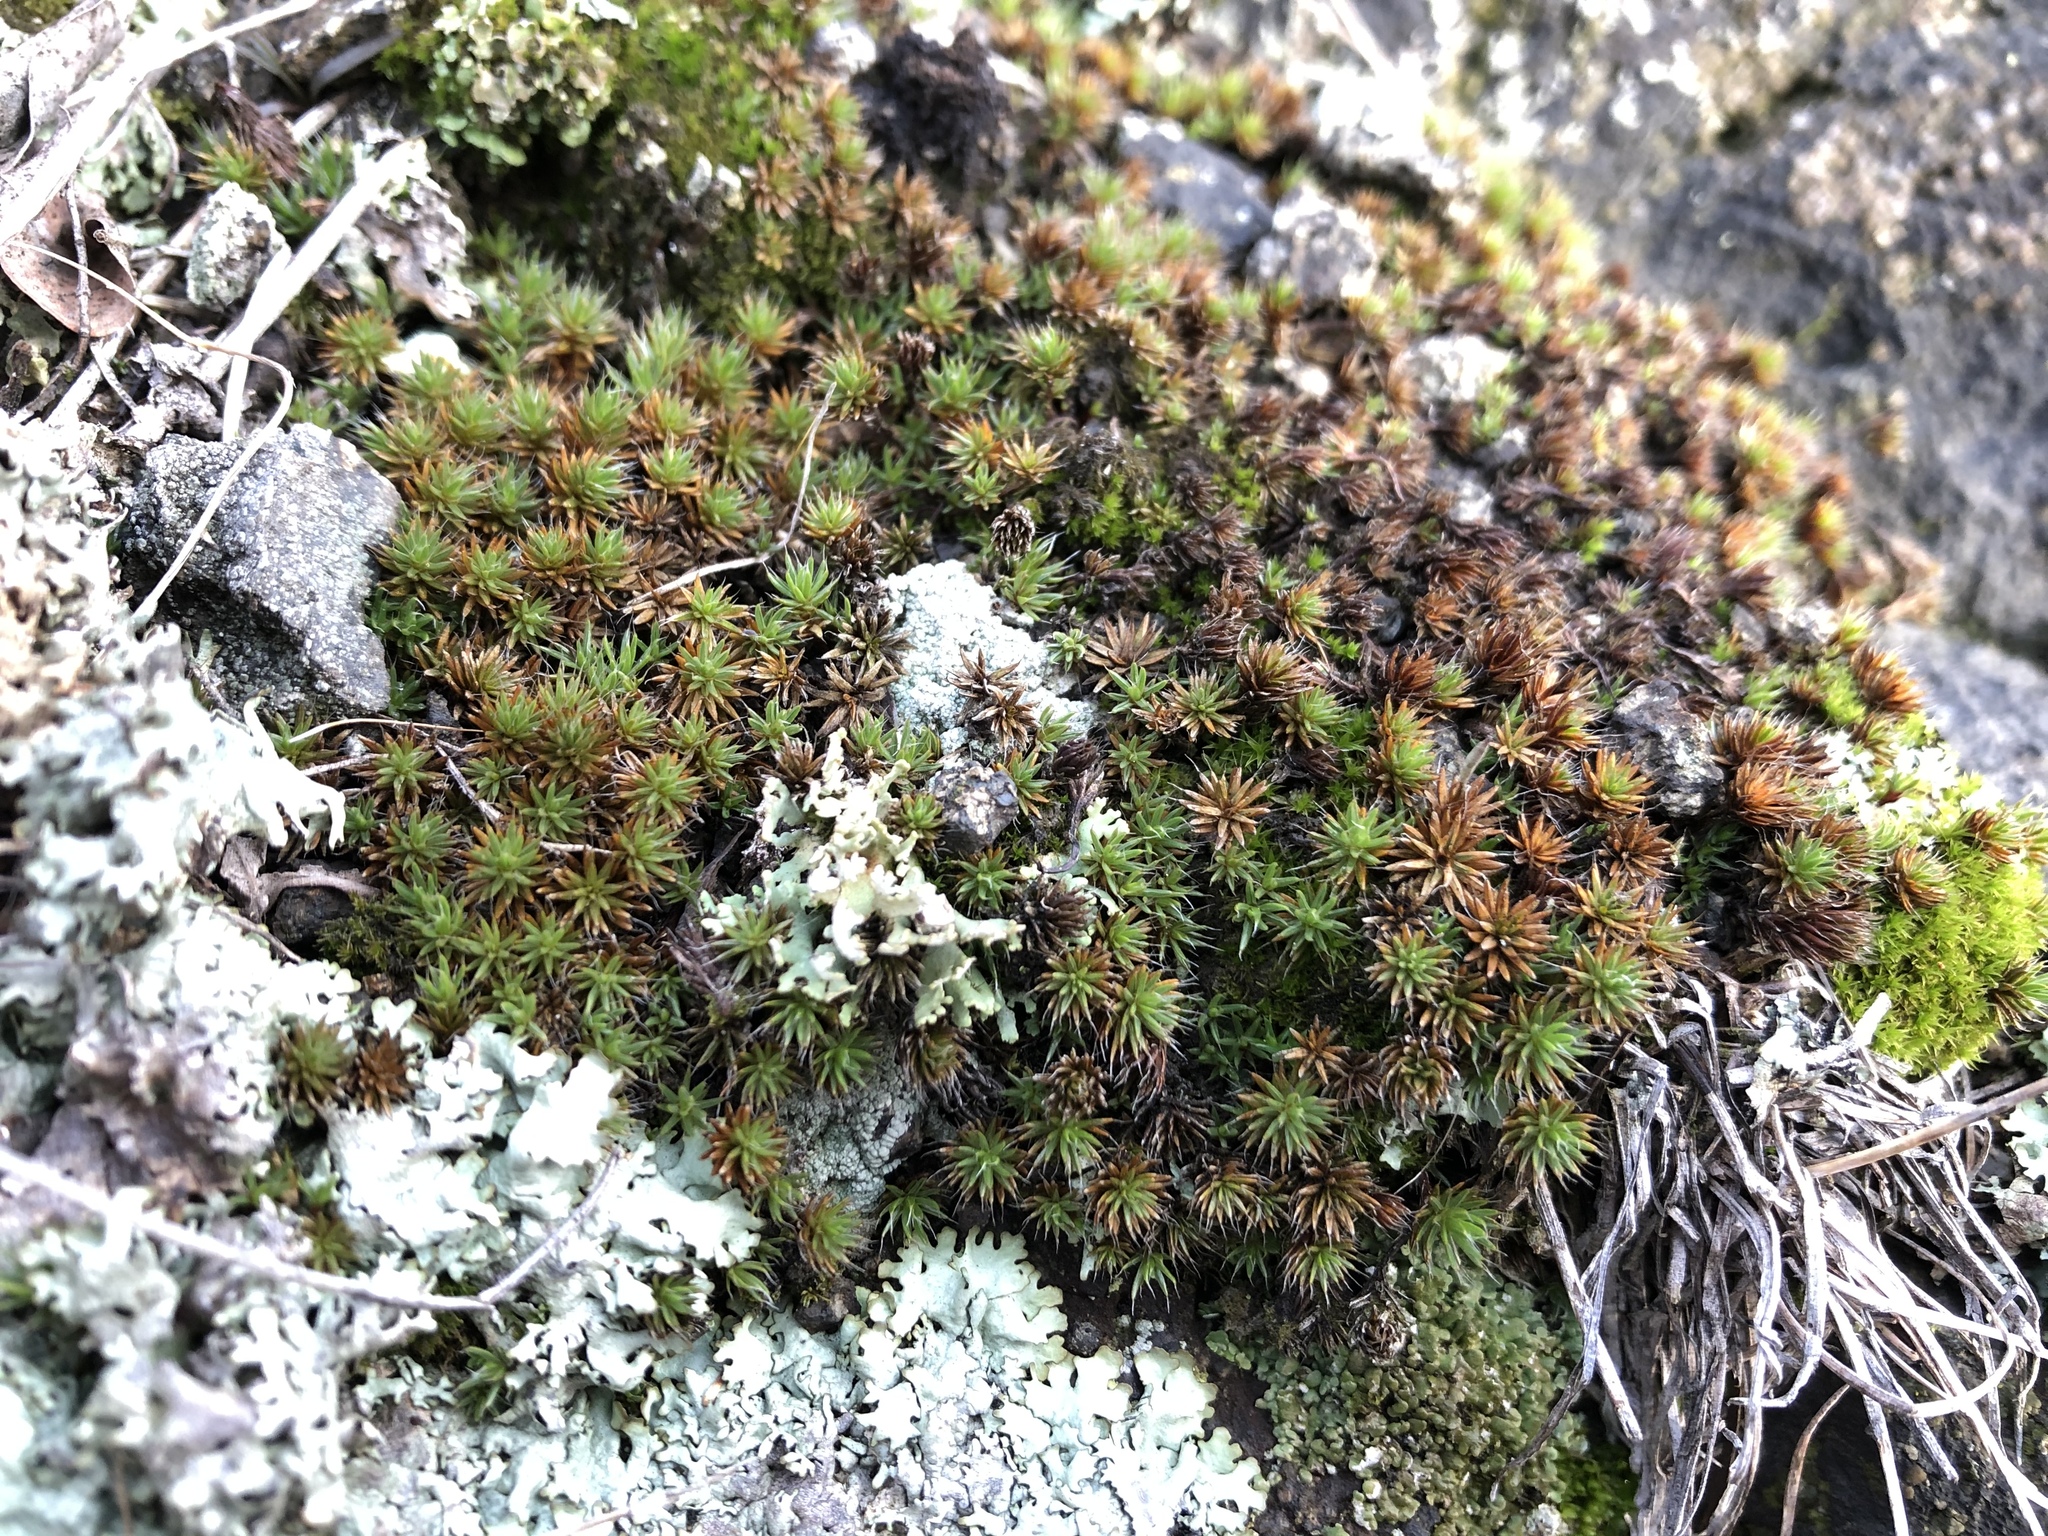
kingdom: Plantae
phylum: Bryophyta
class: Polytrichopsida
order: Polytrichales
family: Polytrichaceae
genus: Polytrichum
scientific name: Polytrichum piliferum
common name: Bristly haircap
